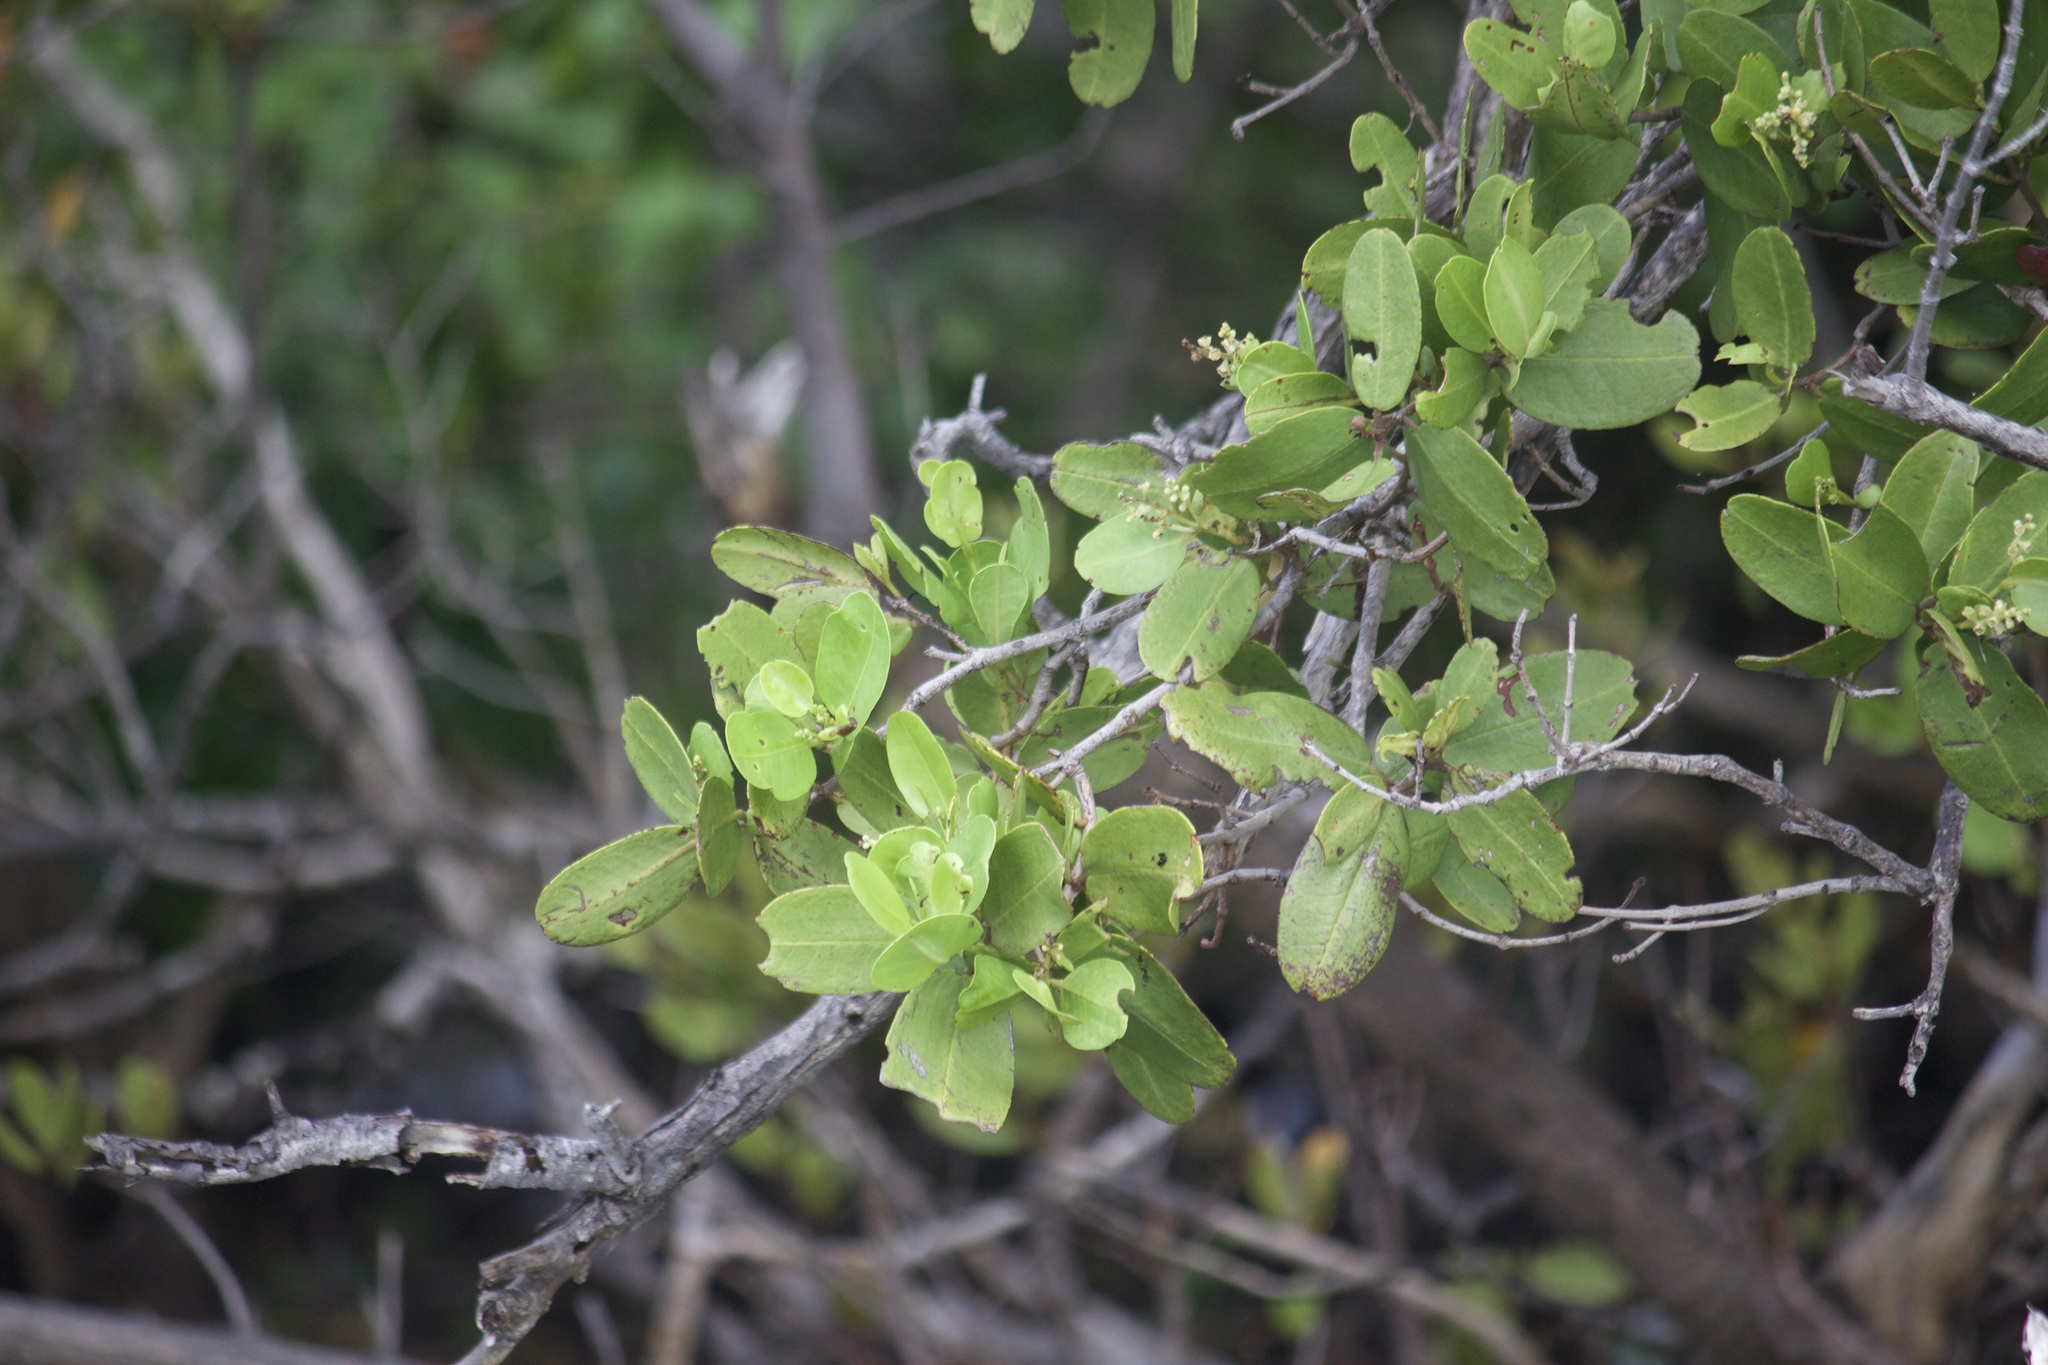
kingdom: Plantae
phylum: Tracheophyta
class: Magnoliopsida
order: Myrtales
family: Combretaceae
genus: Laguncularia
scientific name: Laguncularia racemosa
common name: White mangrove
